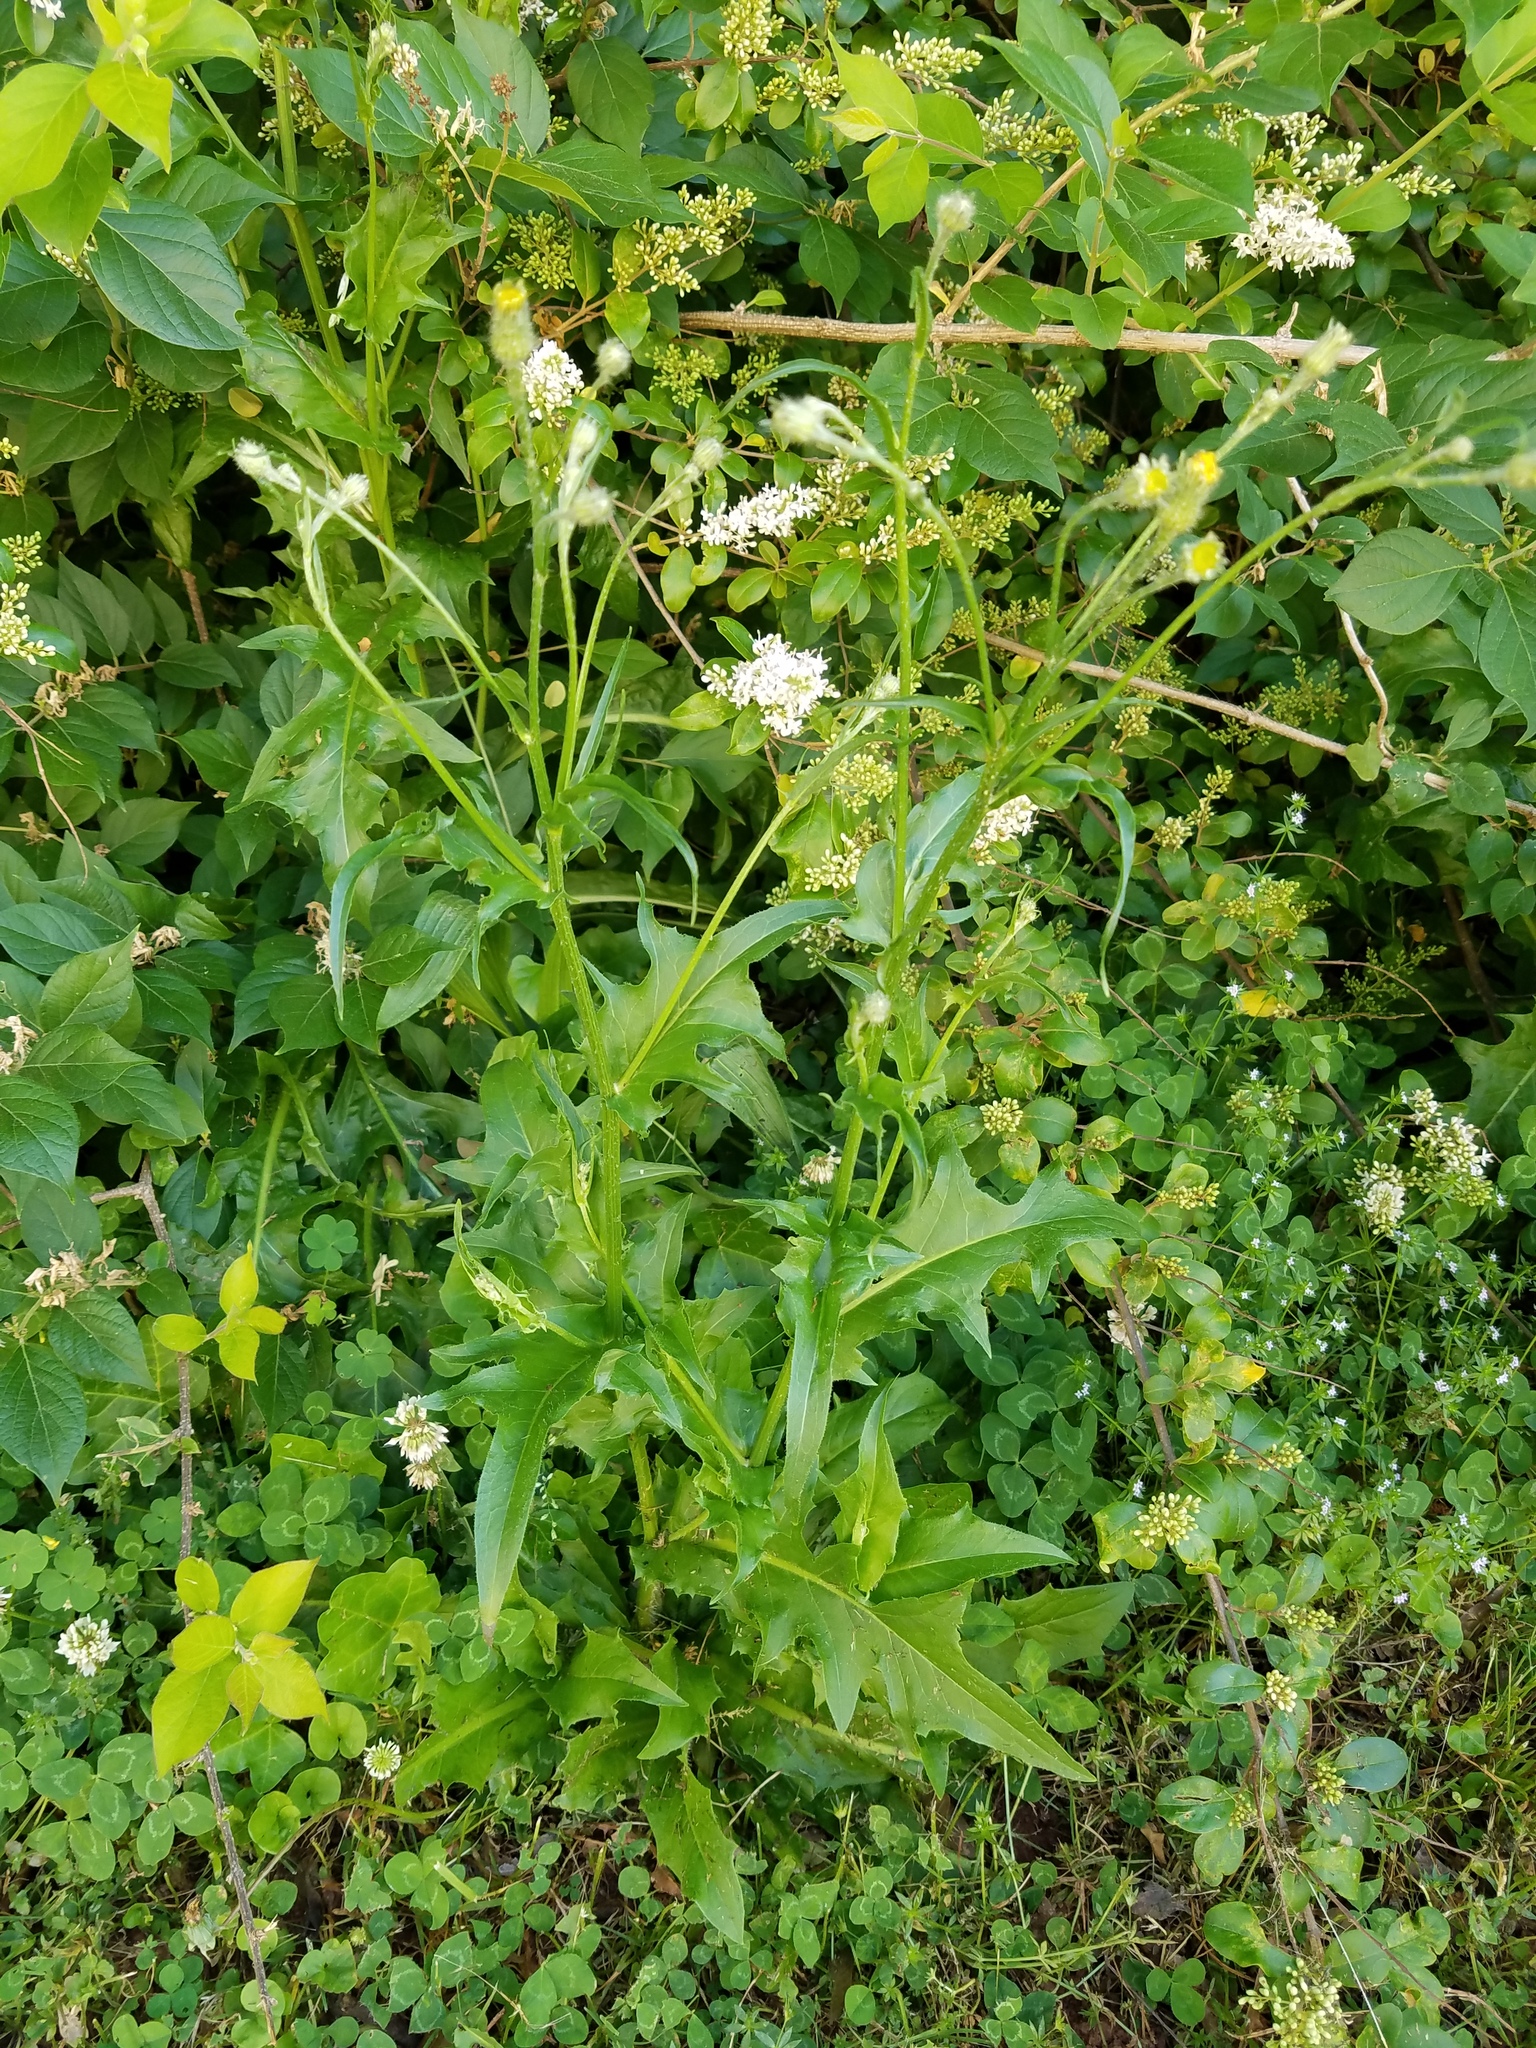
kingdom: Plantae
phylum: Tracheophyta
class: Magnoliopsida
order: Asterales
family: Asteraceae
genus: Hypochaeris
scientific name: Hypochaeris chillensis
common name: Brazilian cat's ear
